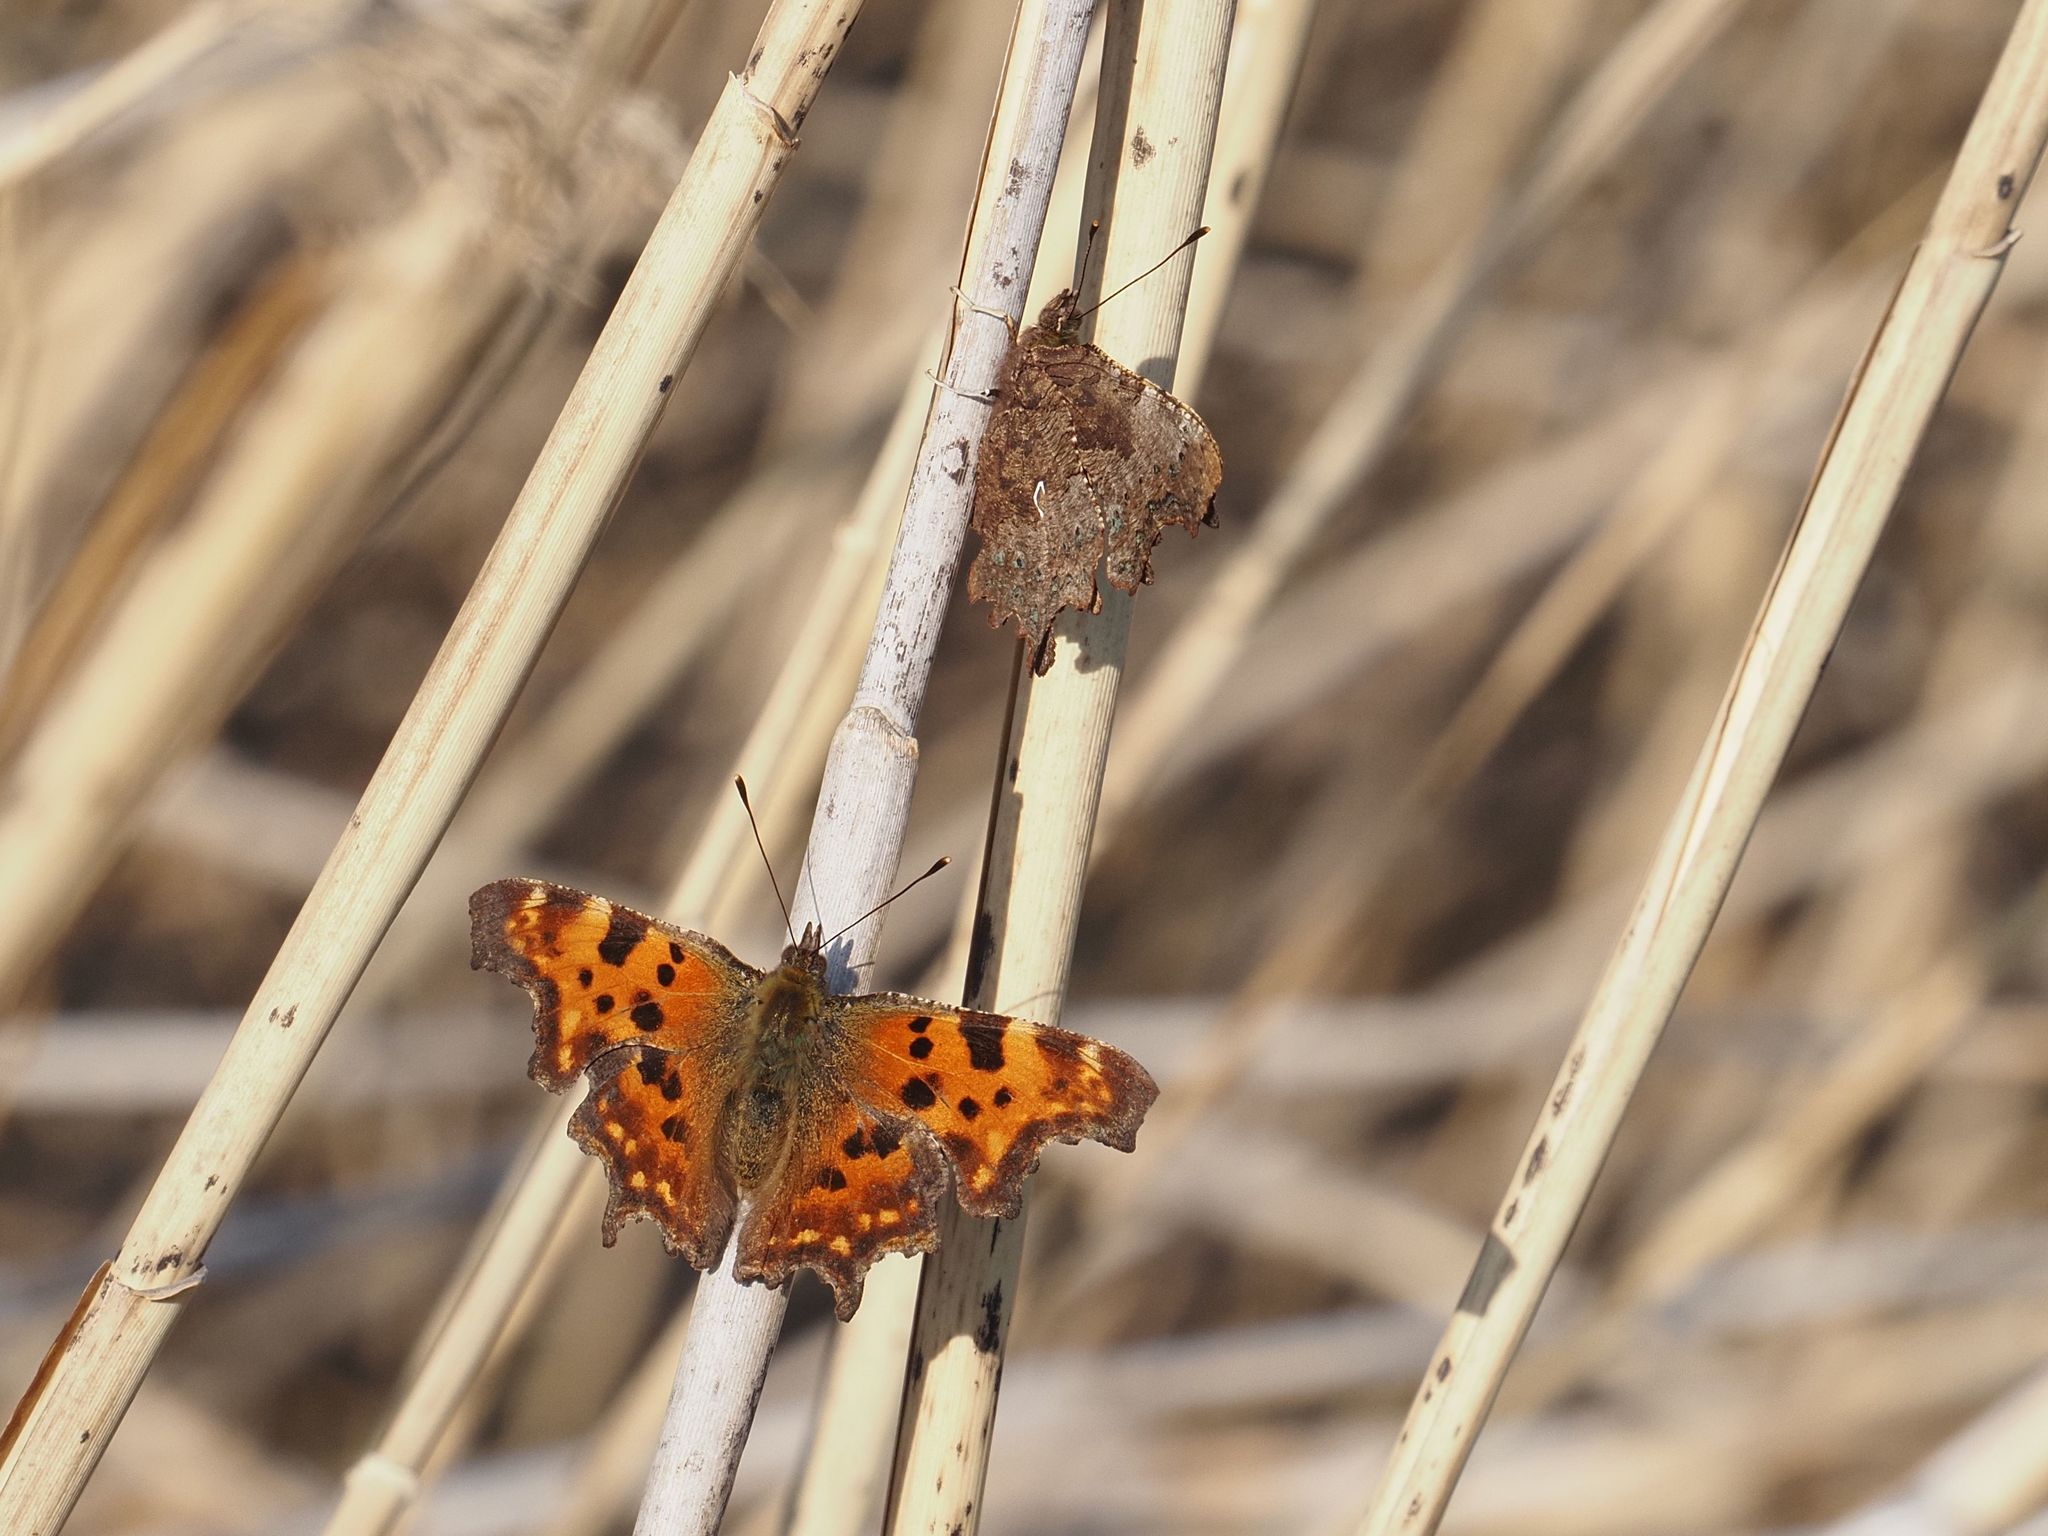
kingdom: Animalia
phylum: Arthropoda
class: Insecta
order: Lepidoptera
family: Nymphalidae
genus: Polygonia
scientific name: Polygonia c-album
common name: Comma
